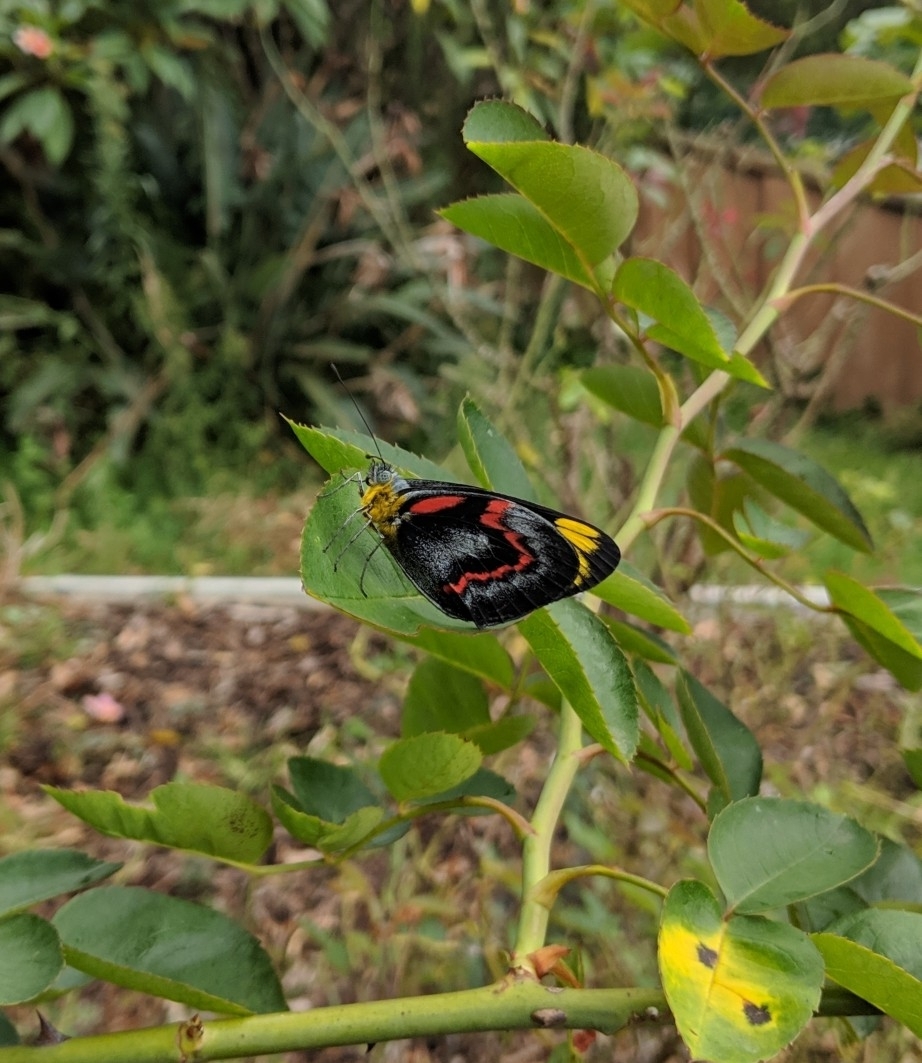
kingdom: Animalia
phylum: Arthropoda
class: Insecta
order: Lepidoptera
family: Pieridae
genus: Delias
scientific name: Delias nigrina
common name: Black jezebel
